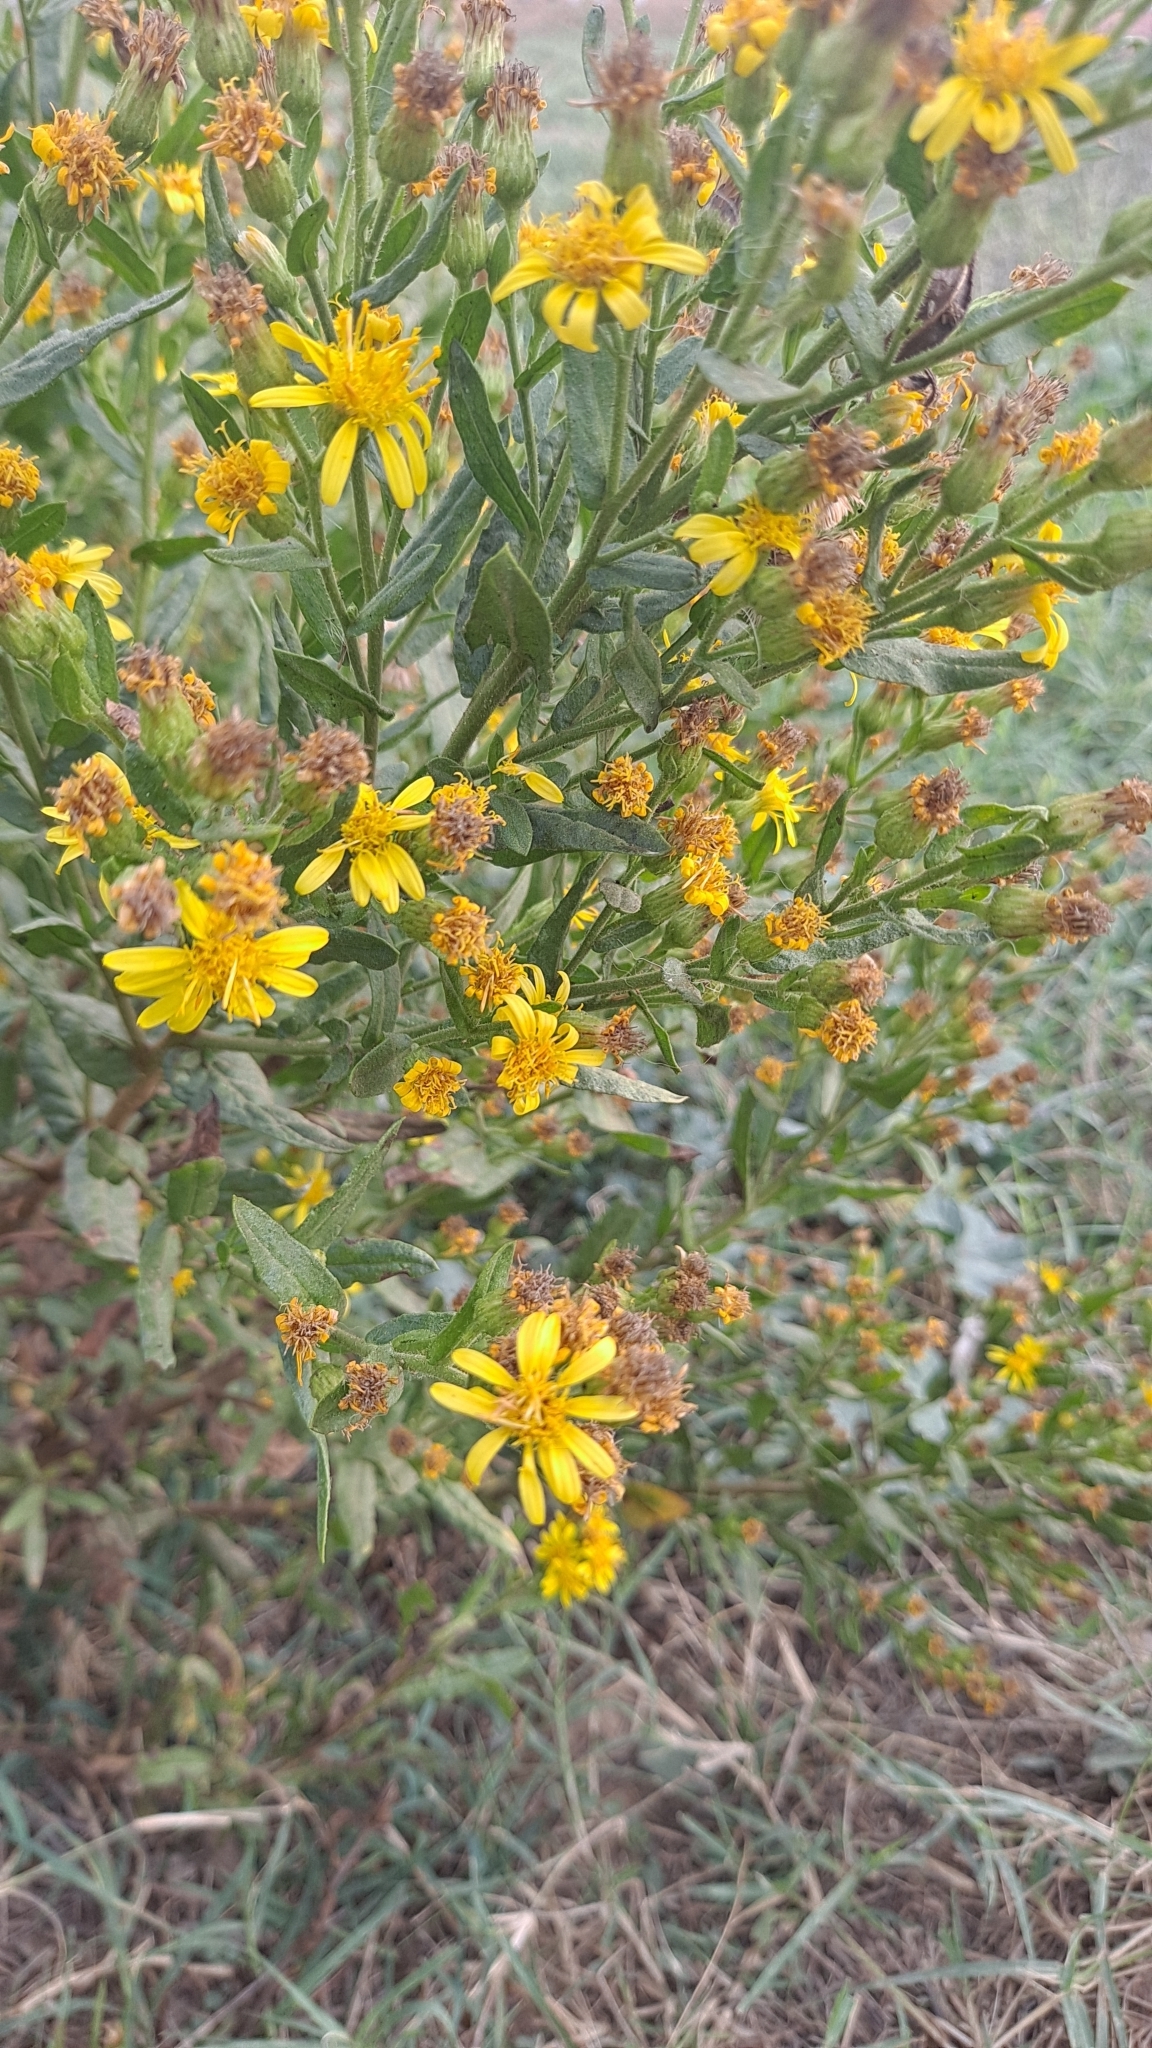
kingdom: Plantae
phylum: Tracheophyta
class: Magnoliopsida
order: Asterales
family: Asteraceae
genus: Dittrichia
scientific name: Dittrichia viscosa
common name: Woody fleabane
